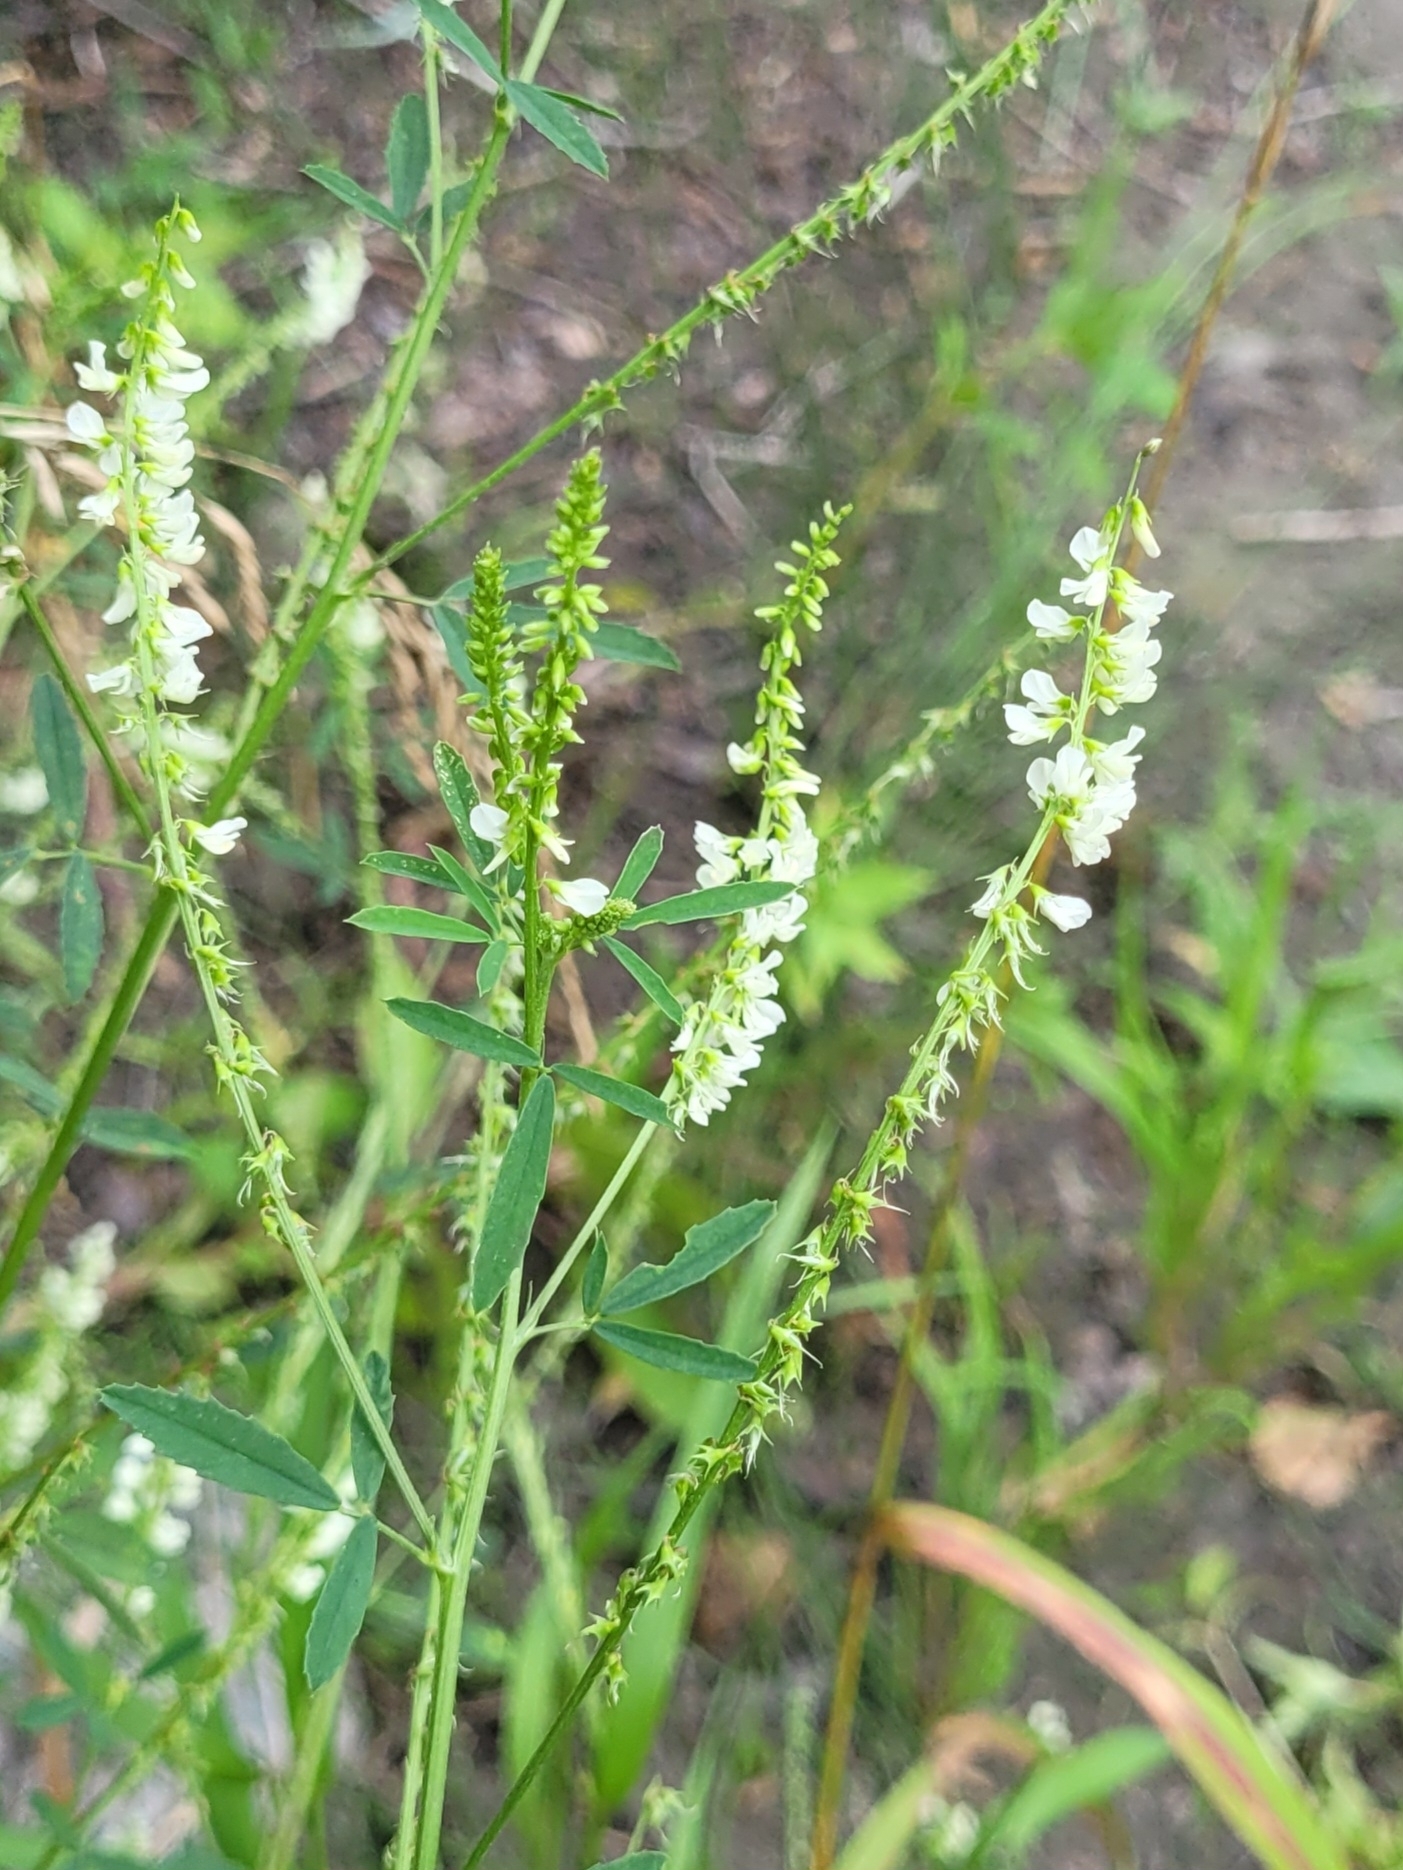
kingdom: Plantae
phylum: Tracheophyta
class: Magnoliopsida
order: Fabales
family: Fabaceae
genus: Melilotus
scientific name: Melilotus albus
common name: White melilot
